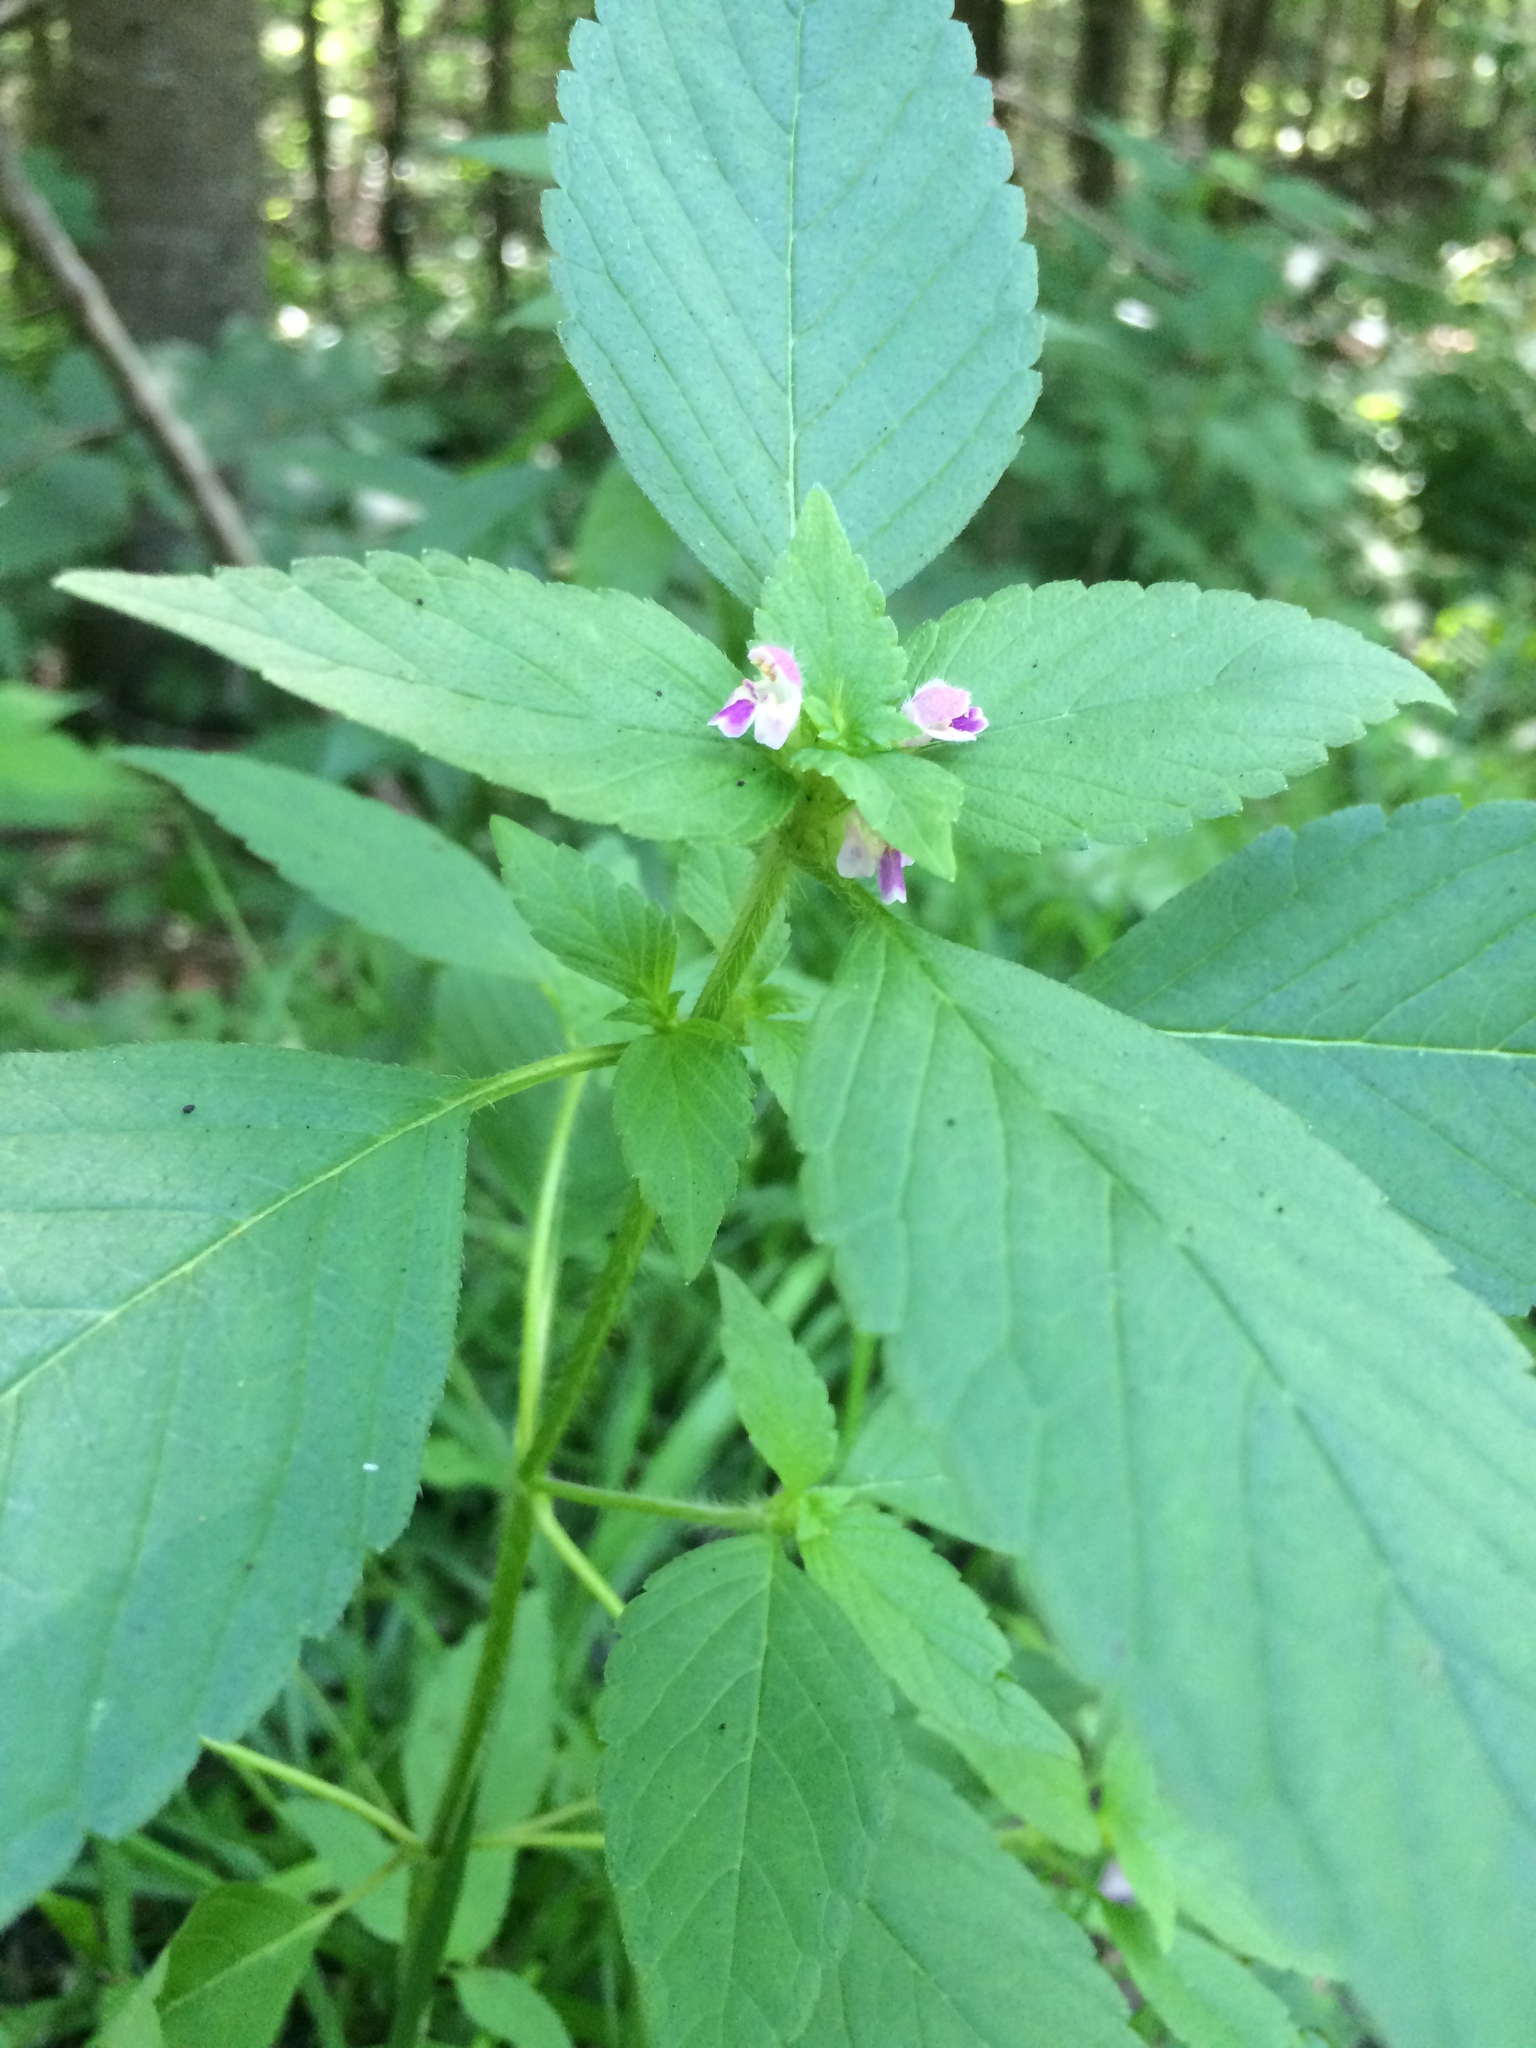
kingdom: Plantae
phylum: Tracheophyta
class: Magnoliopsida
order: Lamiales
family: Lamiaceae
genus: Galeopsis
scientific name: Galeopsis bifida
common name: Bifid hemp-nettle
